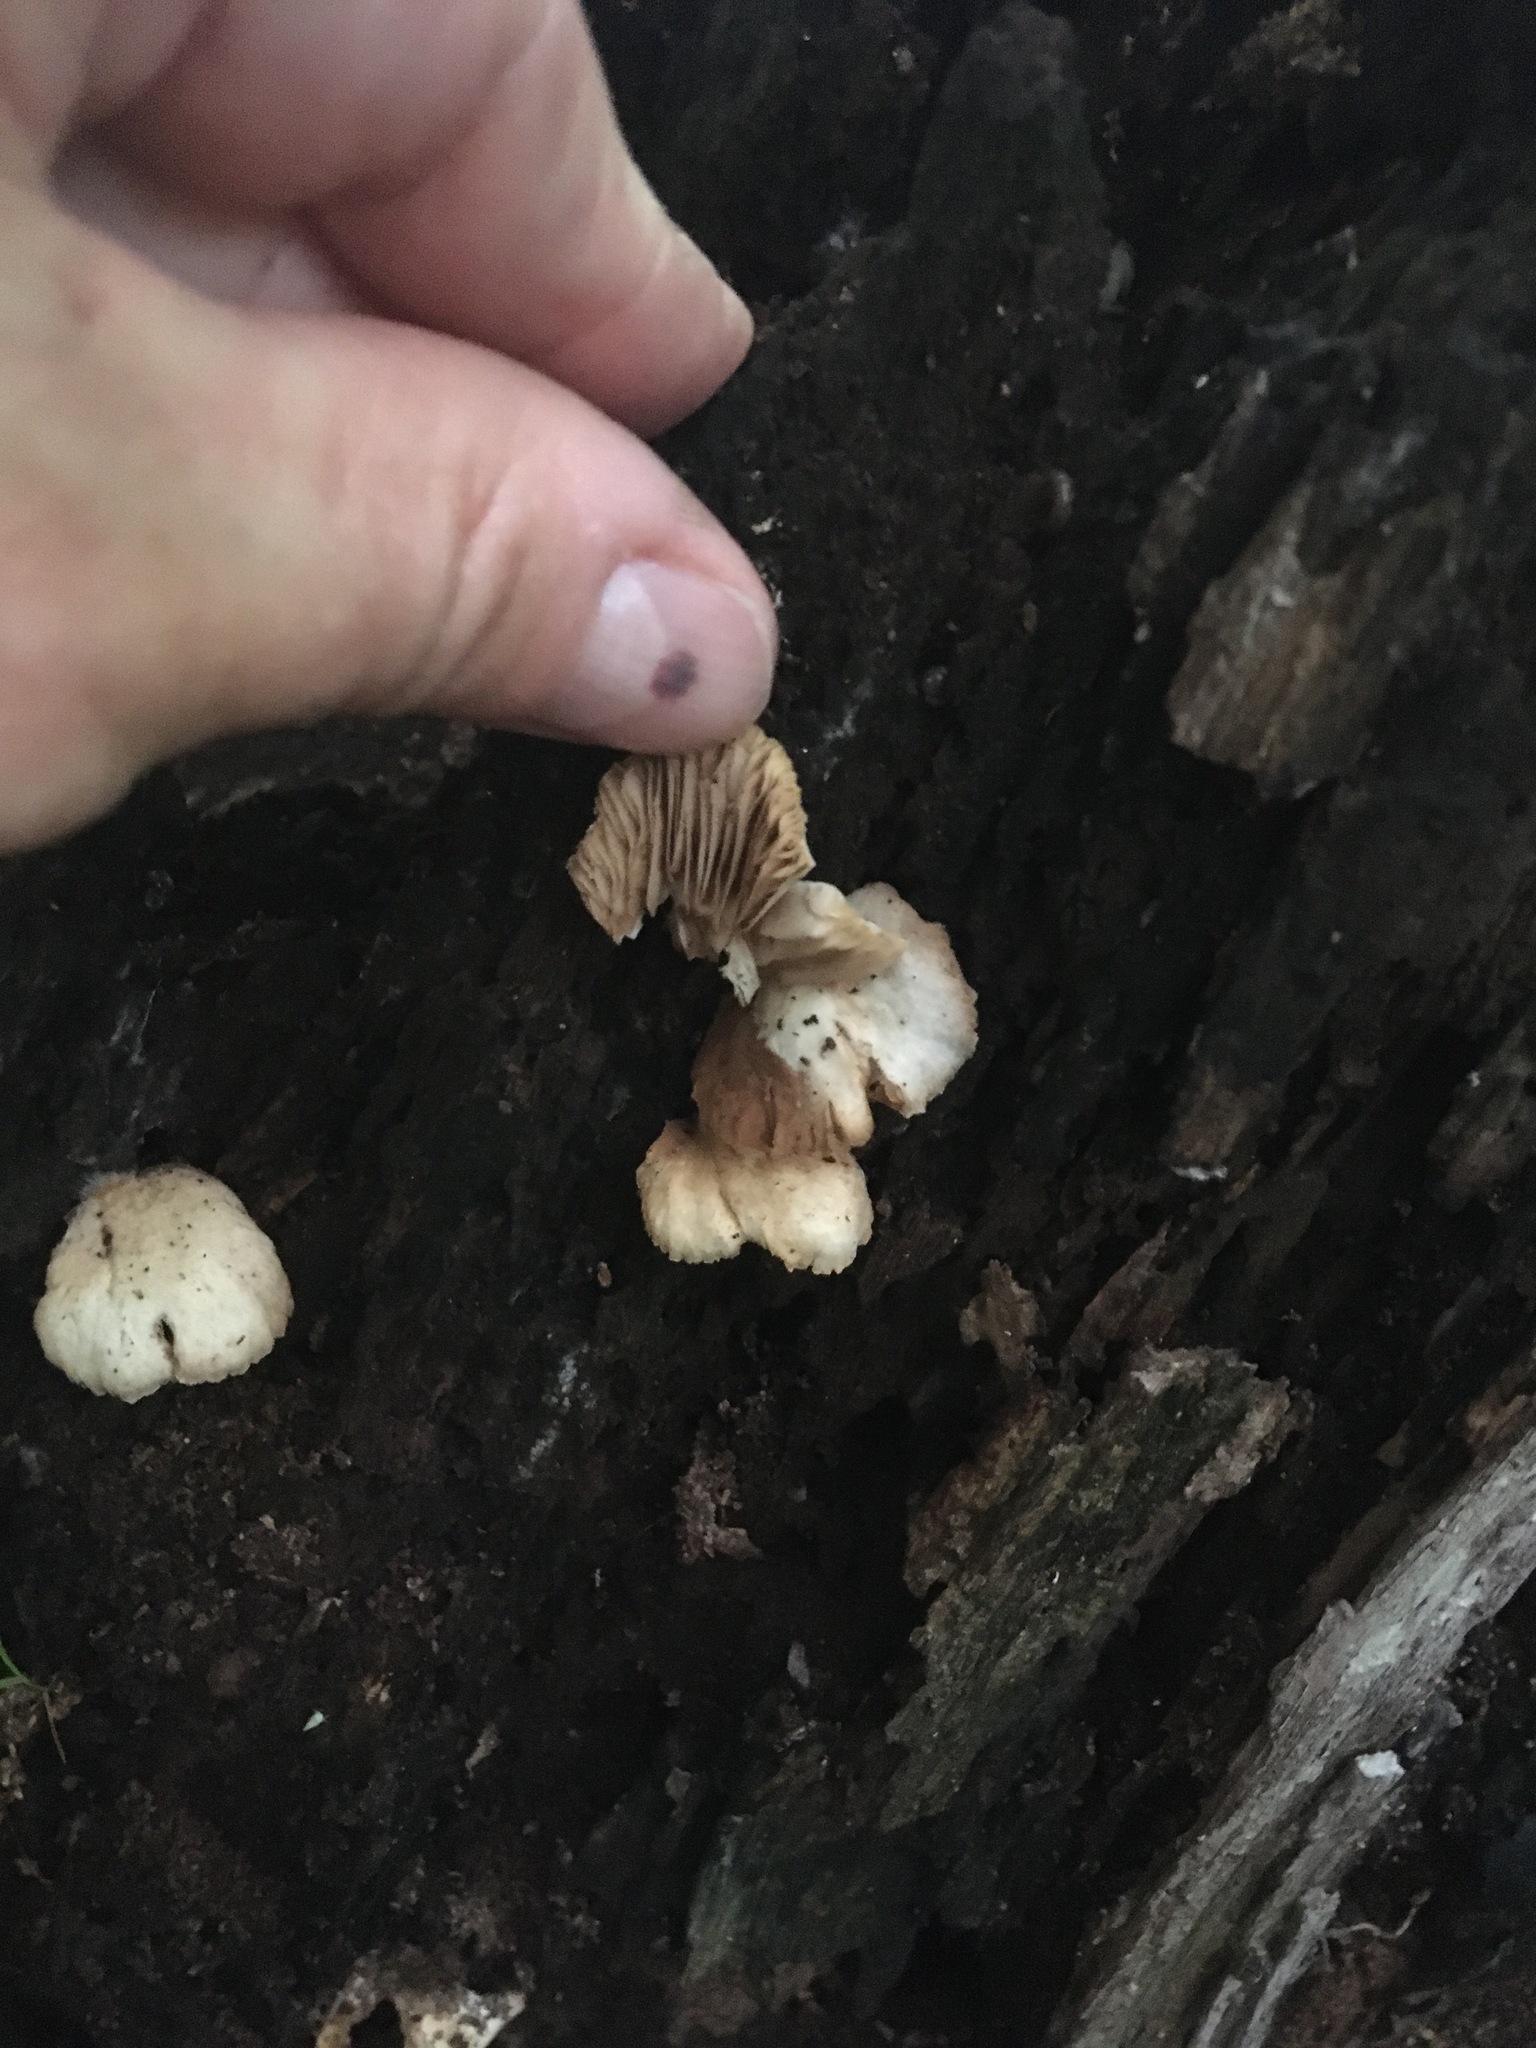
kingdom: Fungi
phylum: Basidiomycota
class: Agaricomycetes
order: Agaricales
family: Crepidotaceae
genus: Crepidotus
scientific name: Crepidotus applanatus
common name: Flat crep
